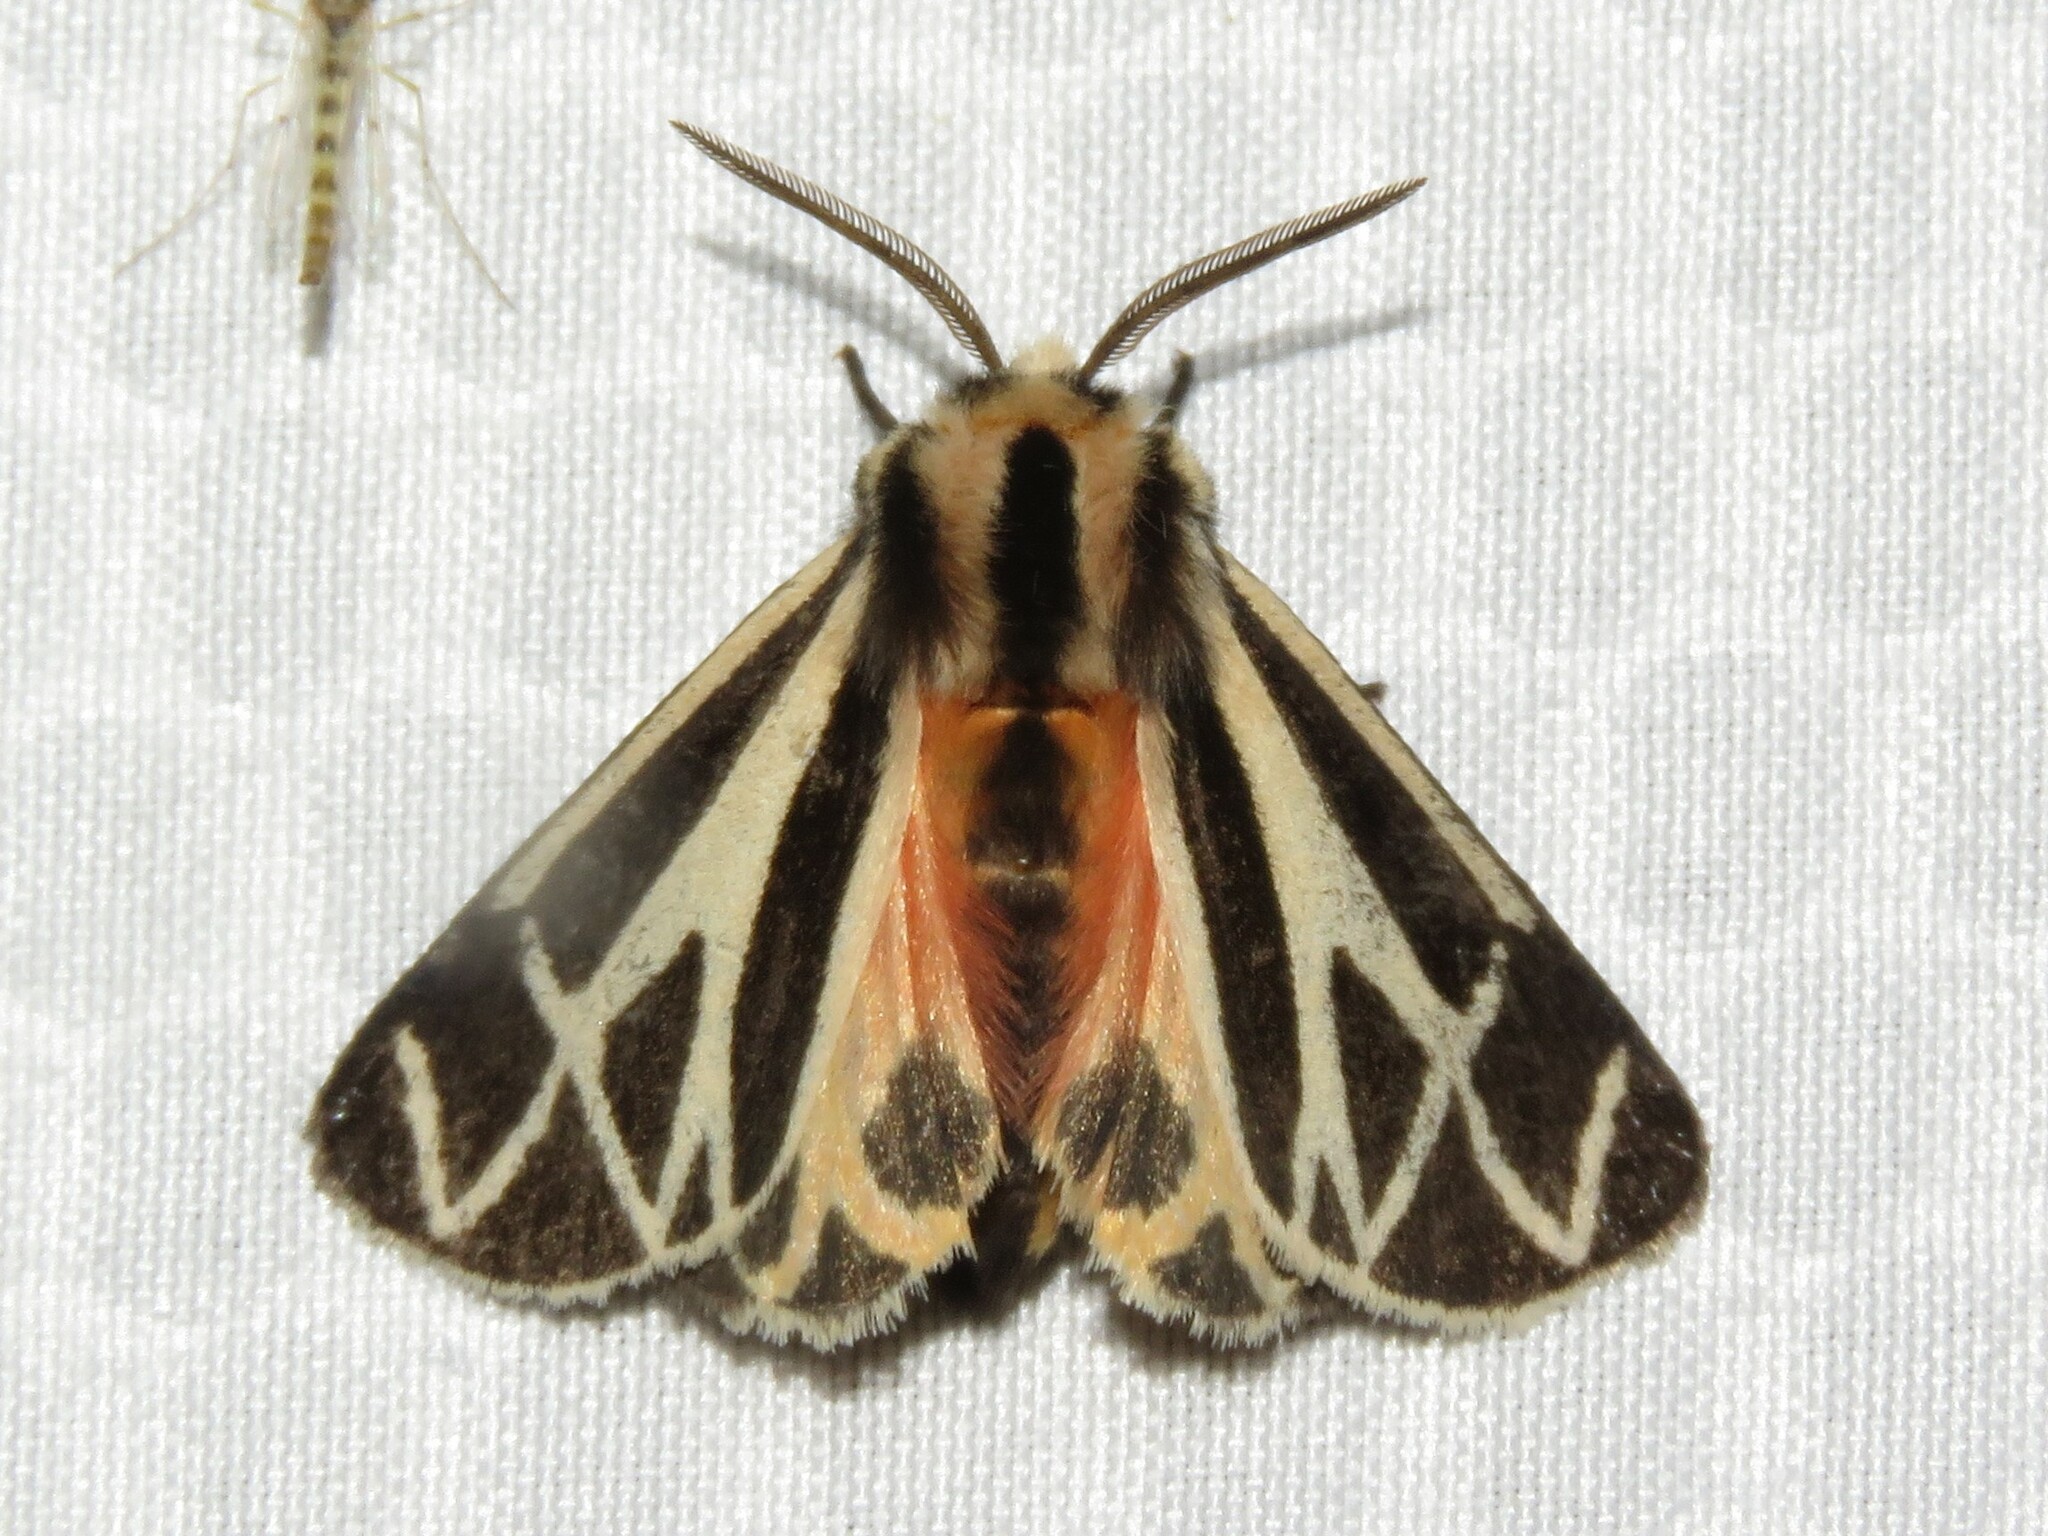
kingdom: Animalia
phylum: Arthropoda
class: Insecta
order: Lepidoptera
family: Erebidae
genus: Apantesis
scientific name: Apantesis phalerata
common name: Harnessed tiger moth
